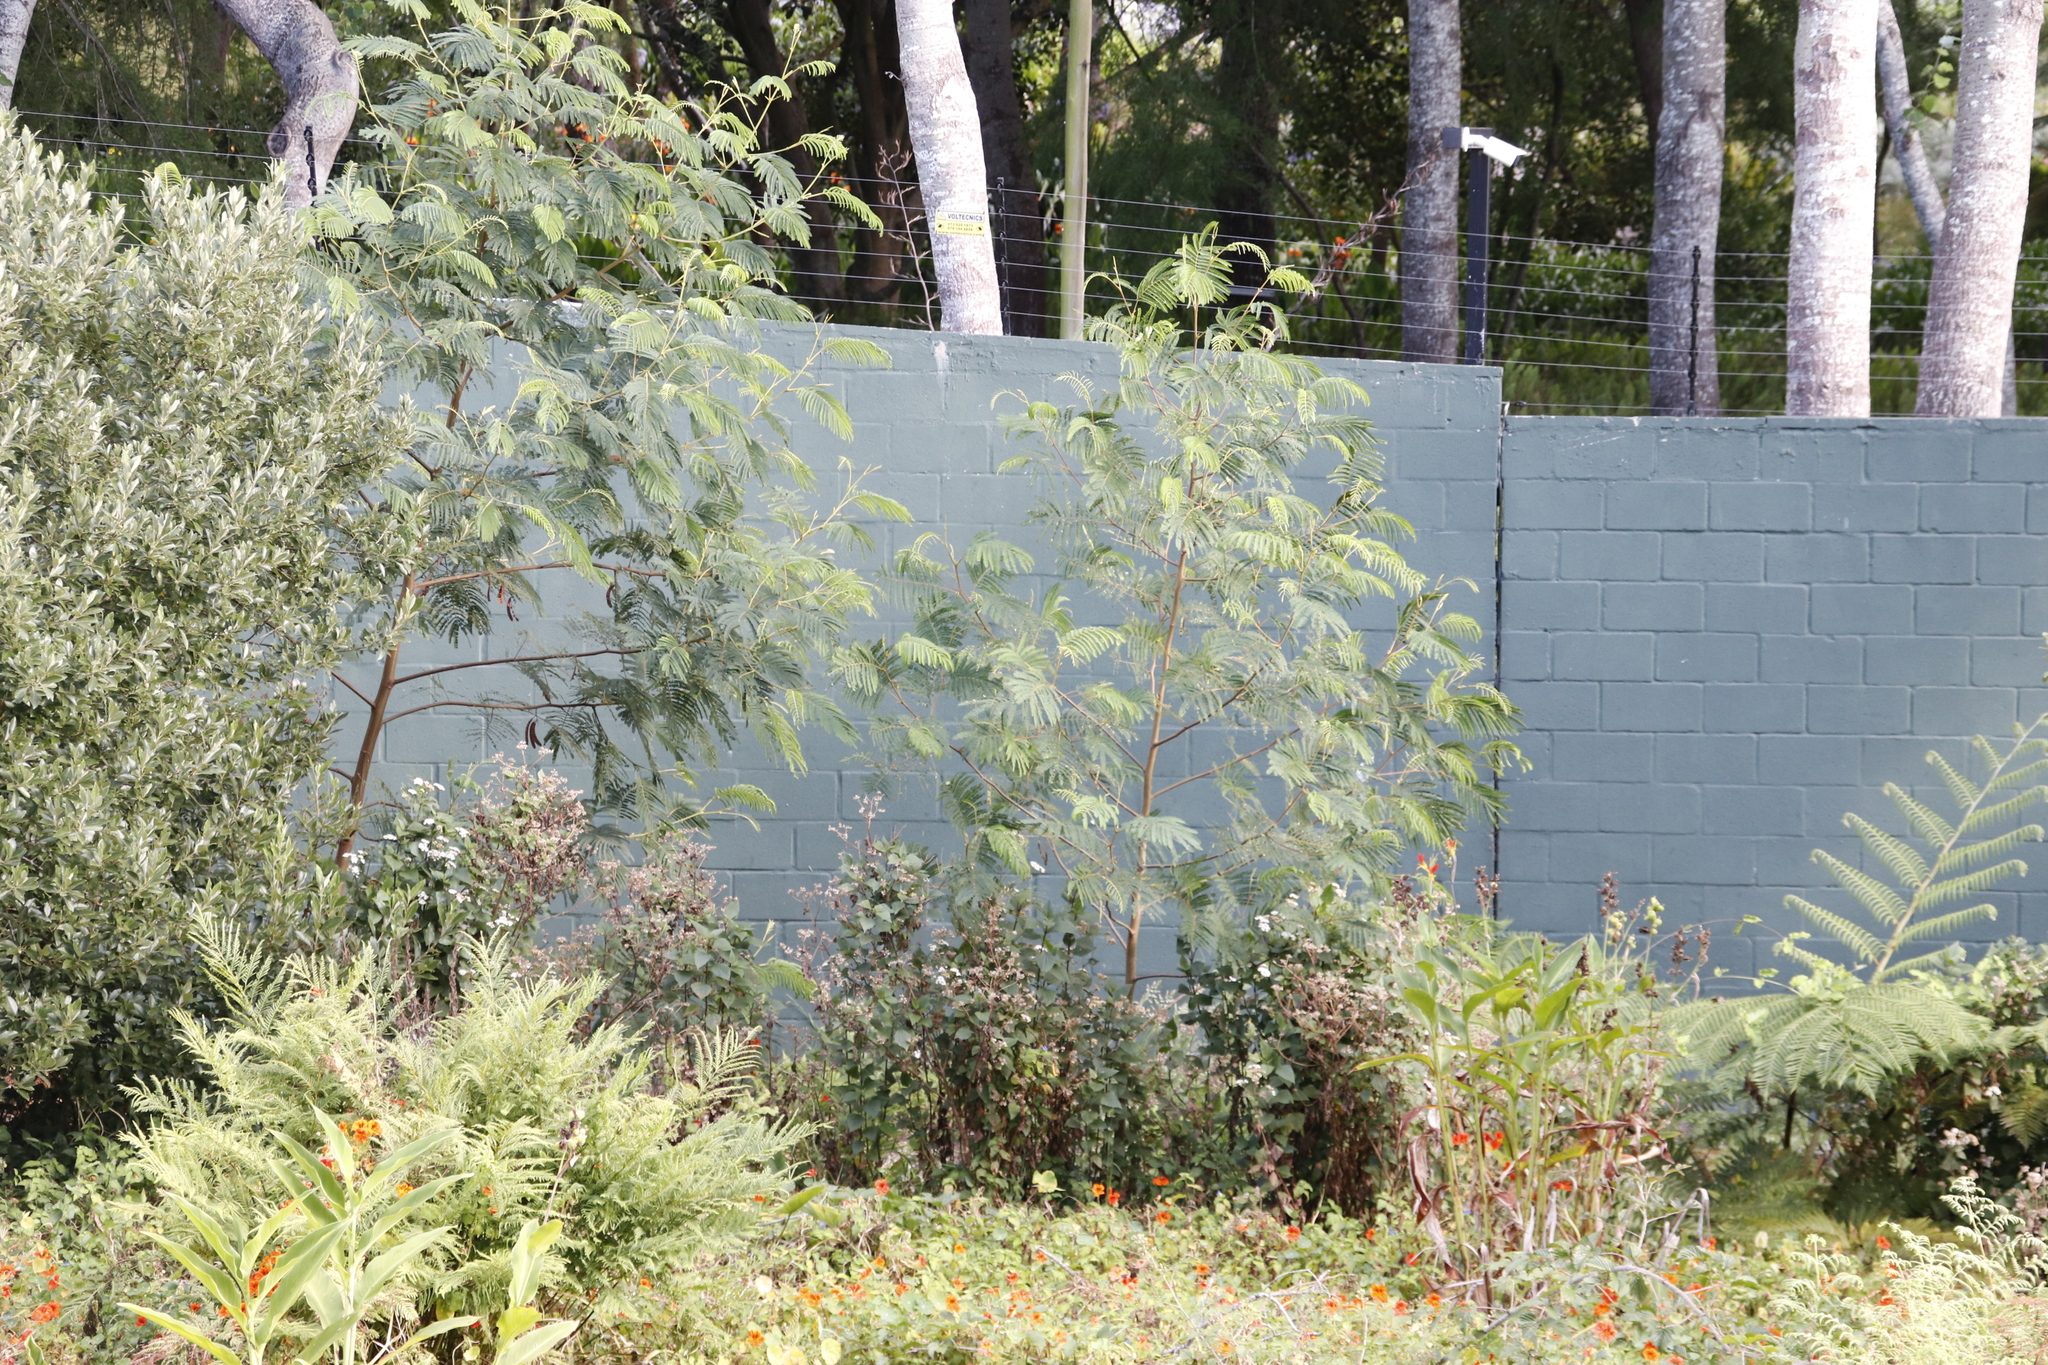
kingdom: Plantae
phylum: Tracheophyta
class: Magnoliopsida
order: Fabales
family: Fabaceae
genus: Paraserianthes
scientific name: Paraserianthes lophantha
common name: Plume albizia
